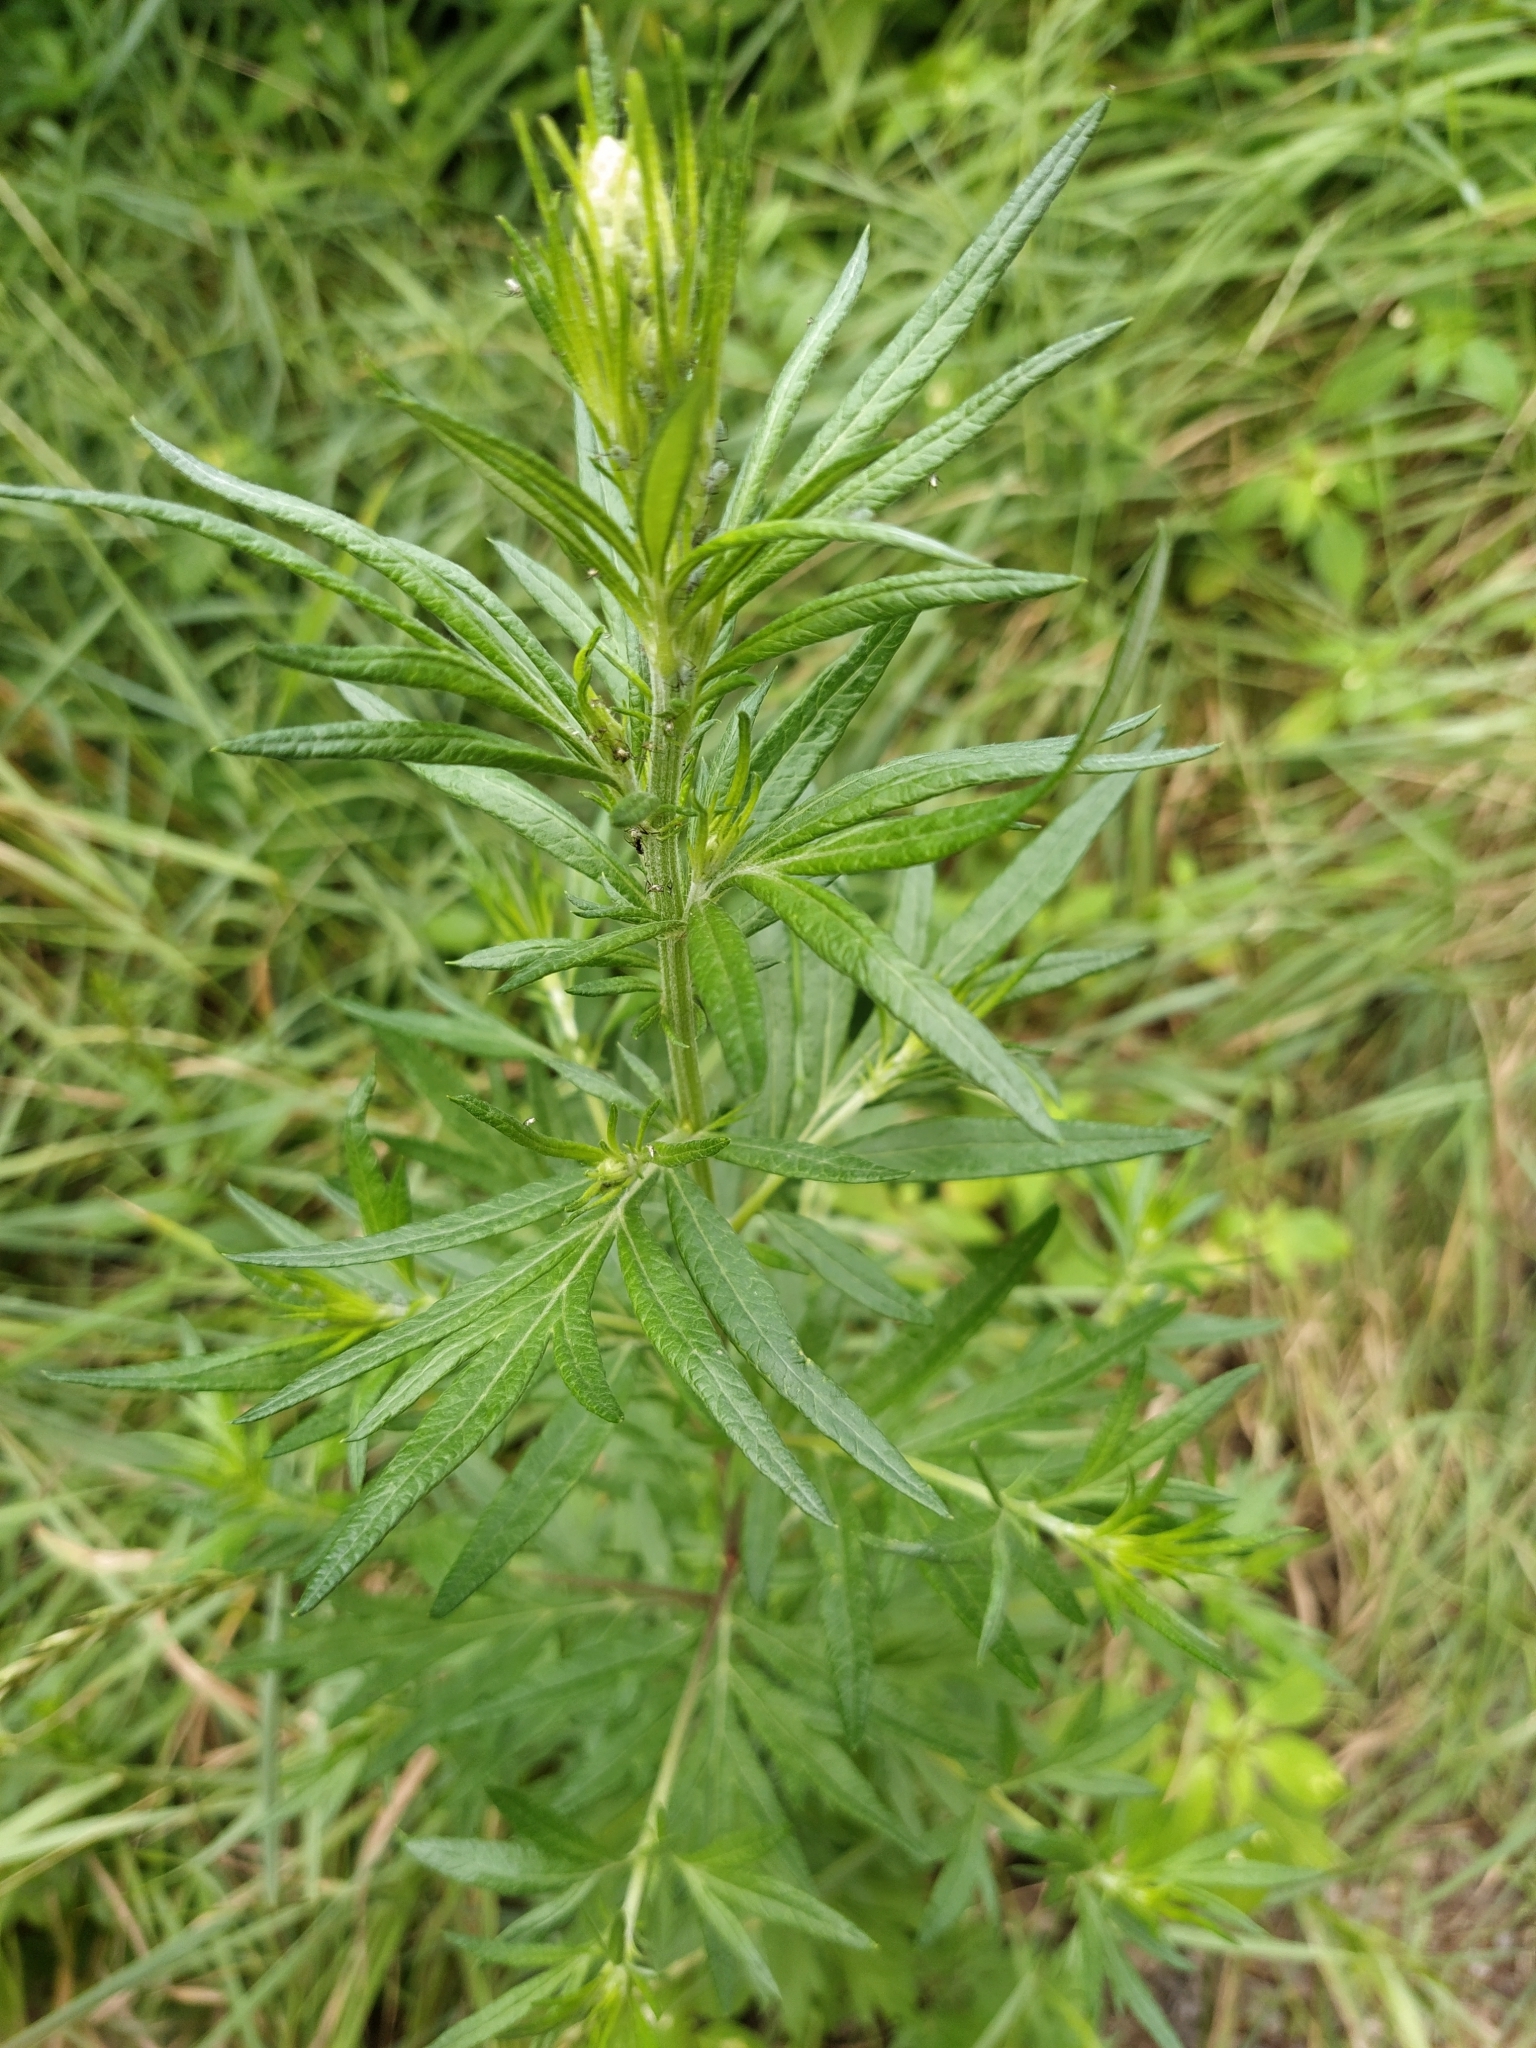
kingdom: Plantae
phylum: Tracheophyta
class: Magnoliopsida
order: Asterales
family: Asteraceae
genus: Artemisia
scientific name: Artemisia vulgaris
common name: Mugwort
